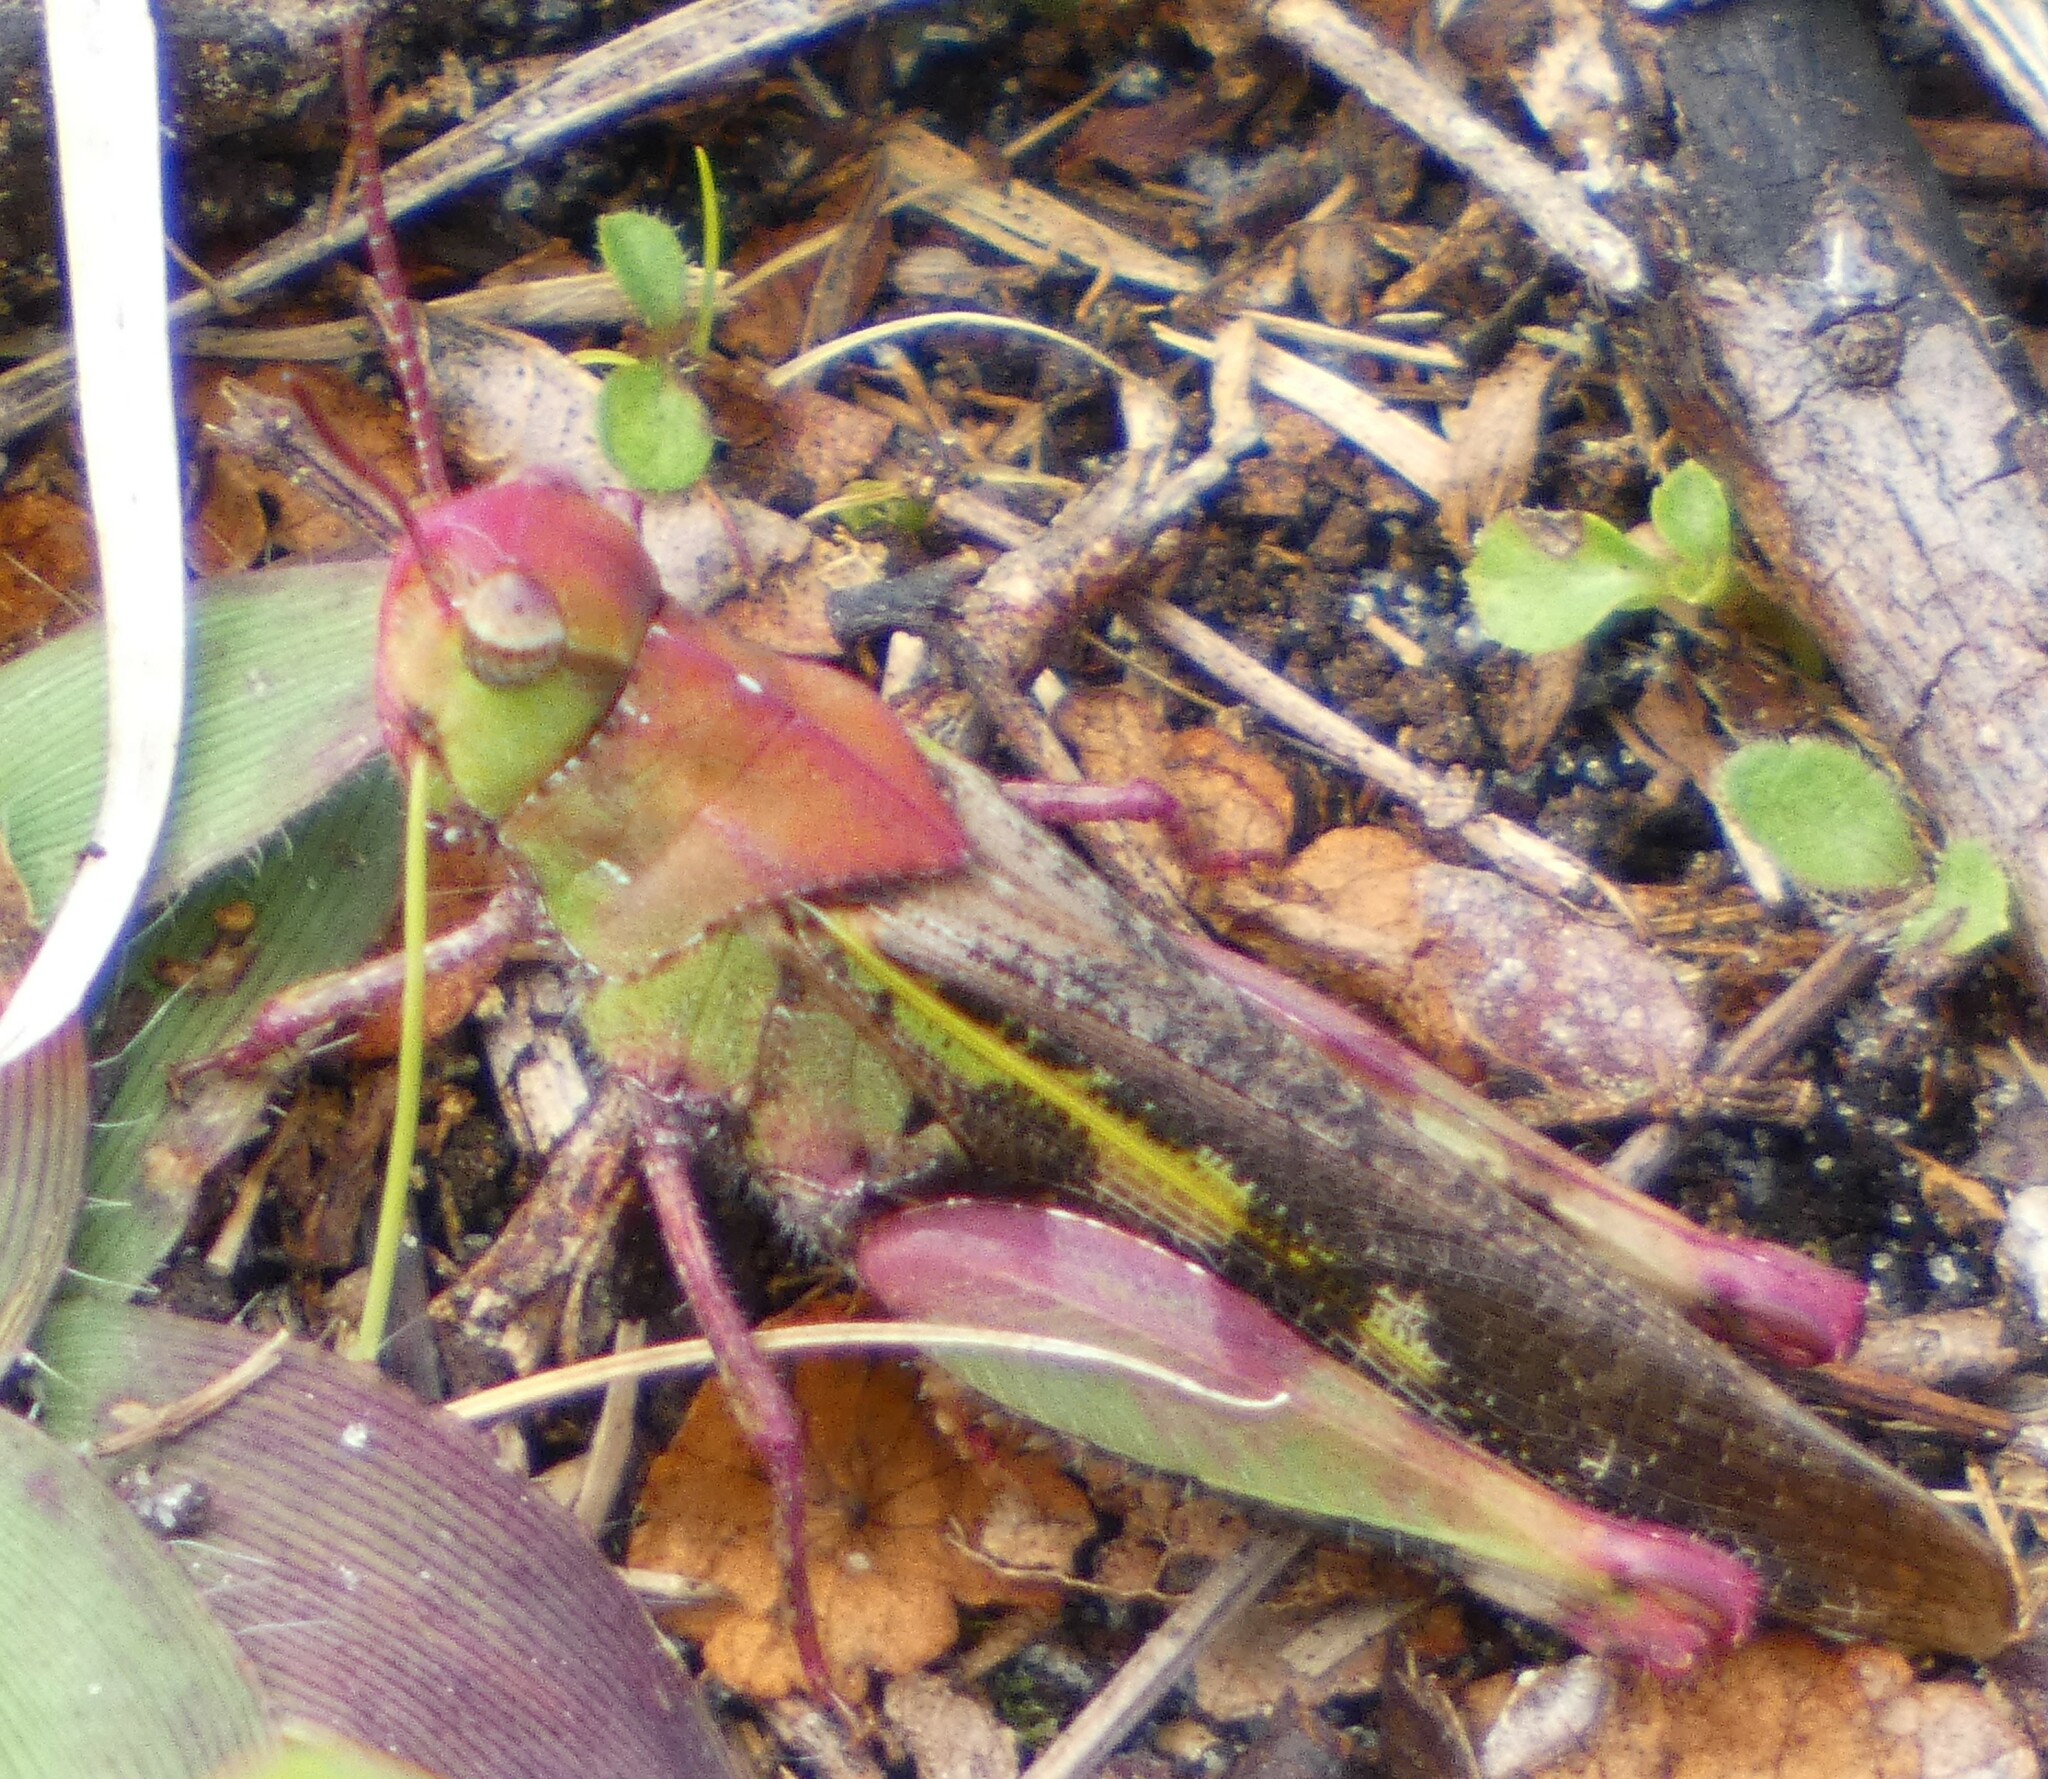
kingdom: Animalia
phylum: Arthropoda
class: Insecta
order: Orthoptera
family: Acrididae
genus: Chortophaga
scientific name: Chortophaga australior
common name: Southern green-striped grasshopper
